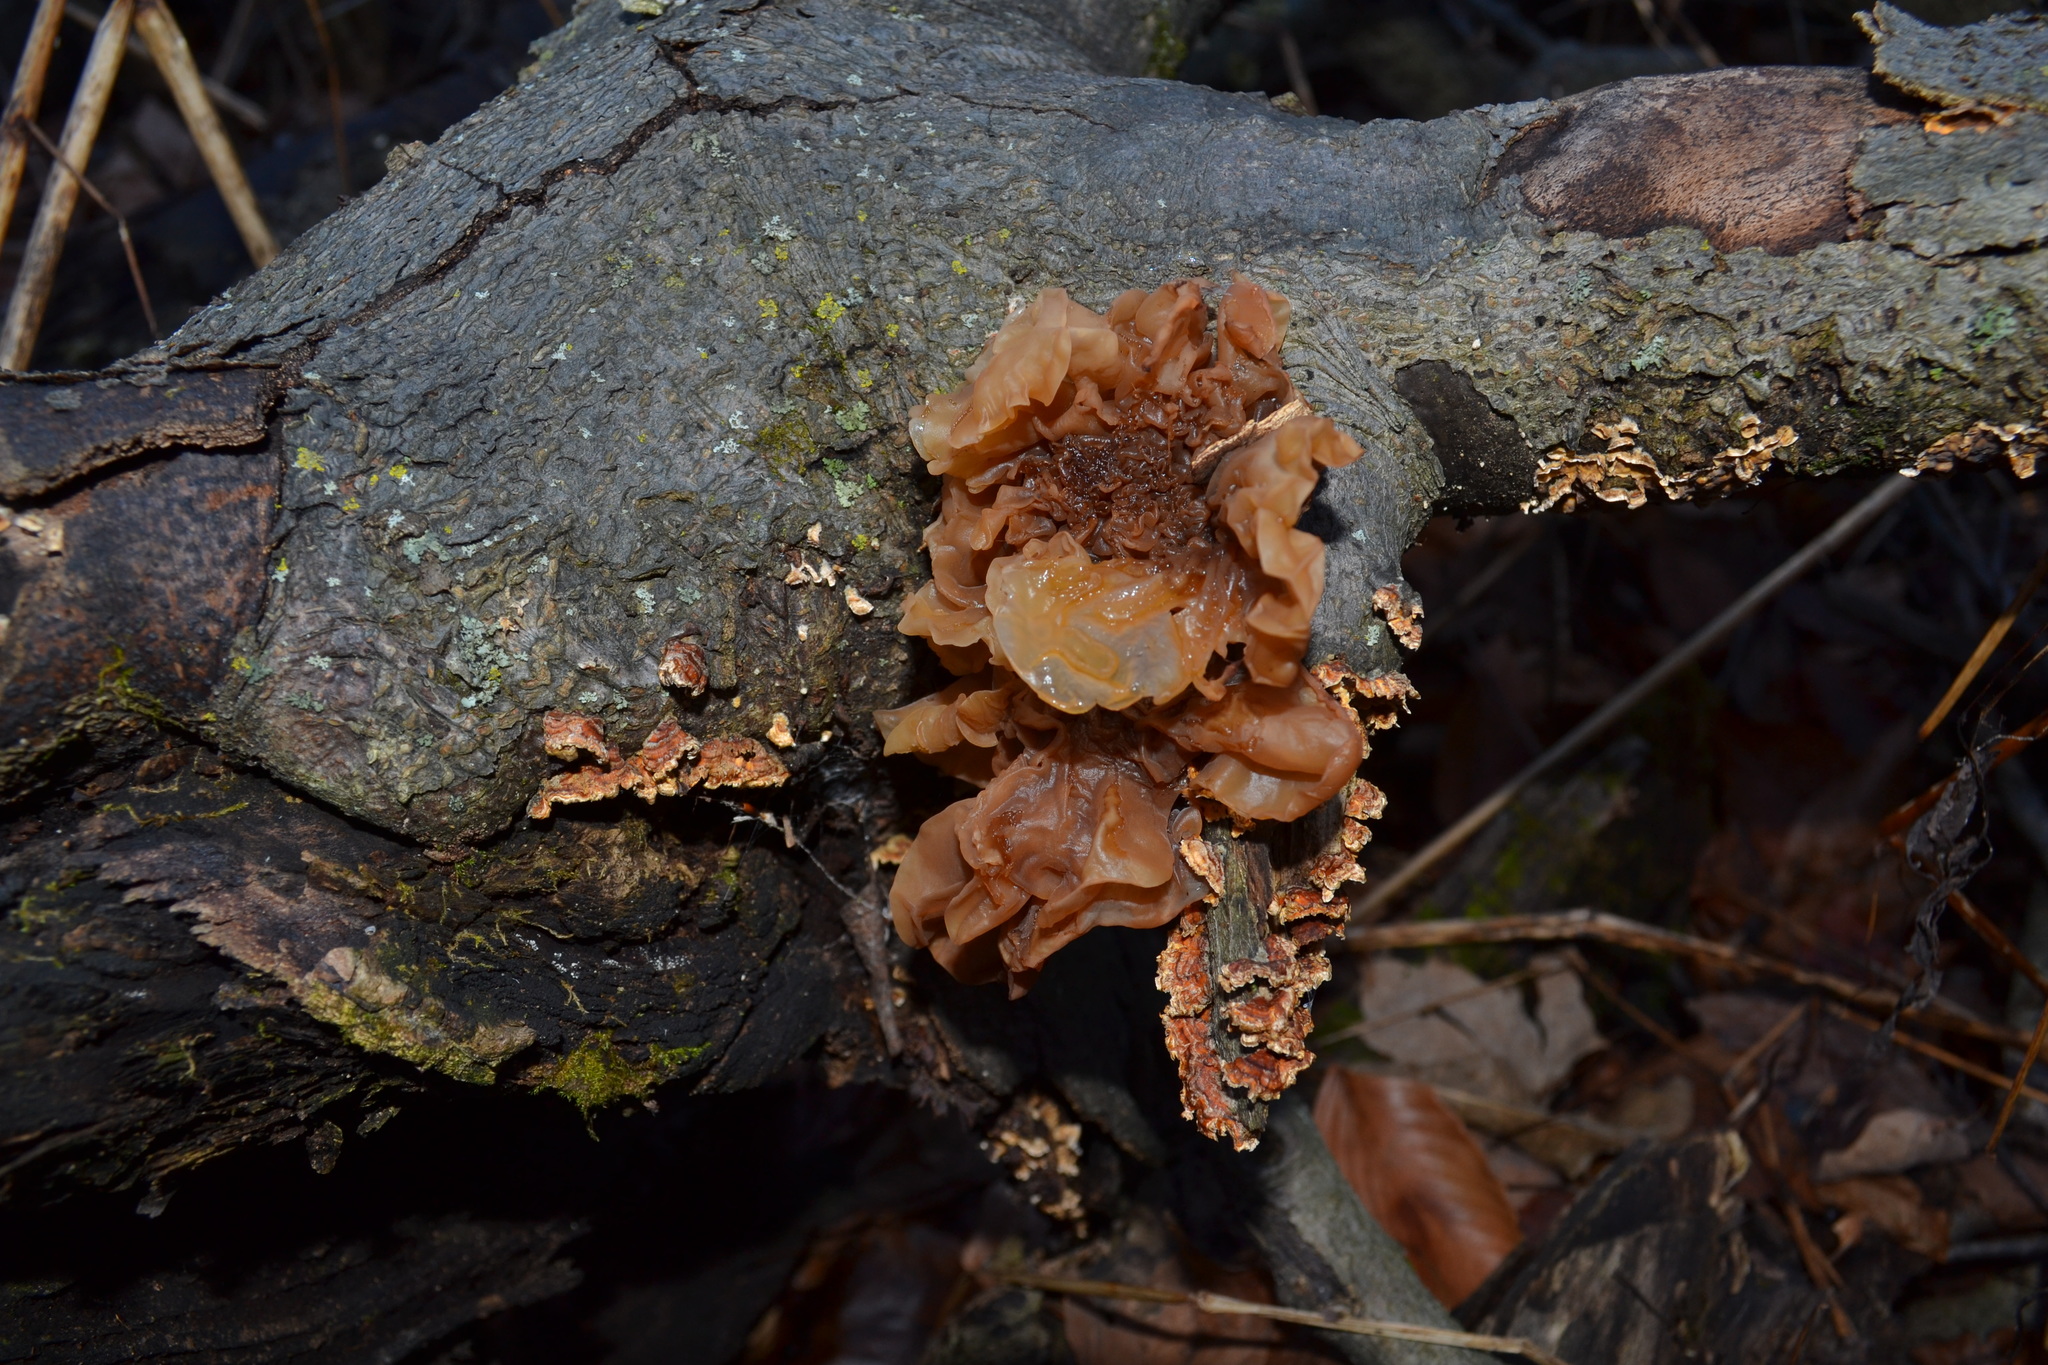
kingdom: Fungi
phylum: Basidiomycota
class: Tremellomycetes
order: Tremellales
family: Tremellaceae
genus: Phaeotremella
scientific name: Phaeotremella foliacea
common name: Leafy brain
